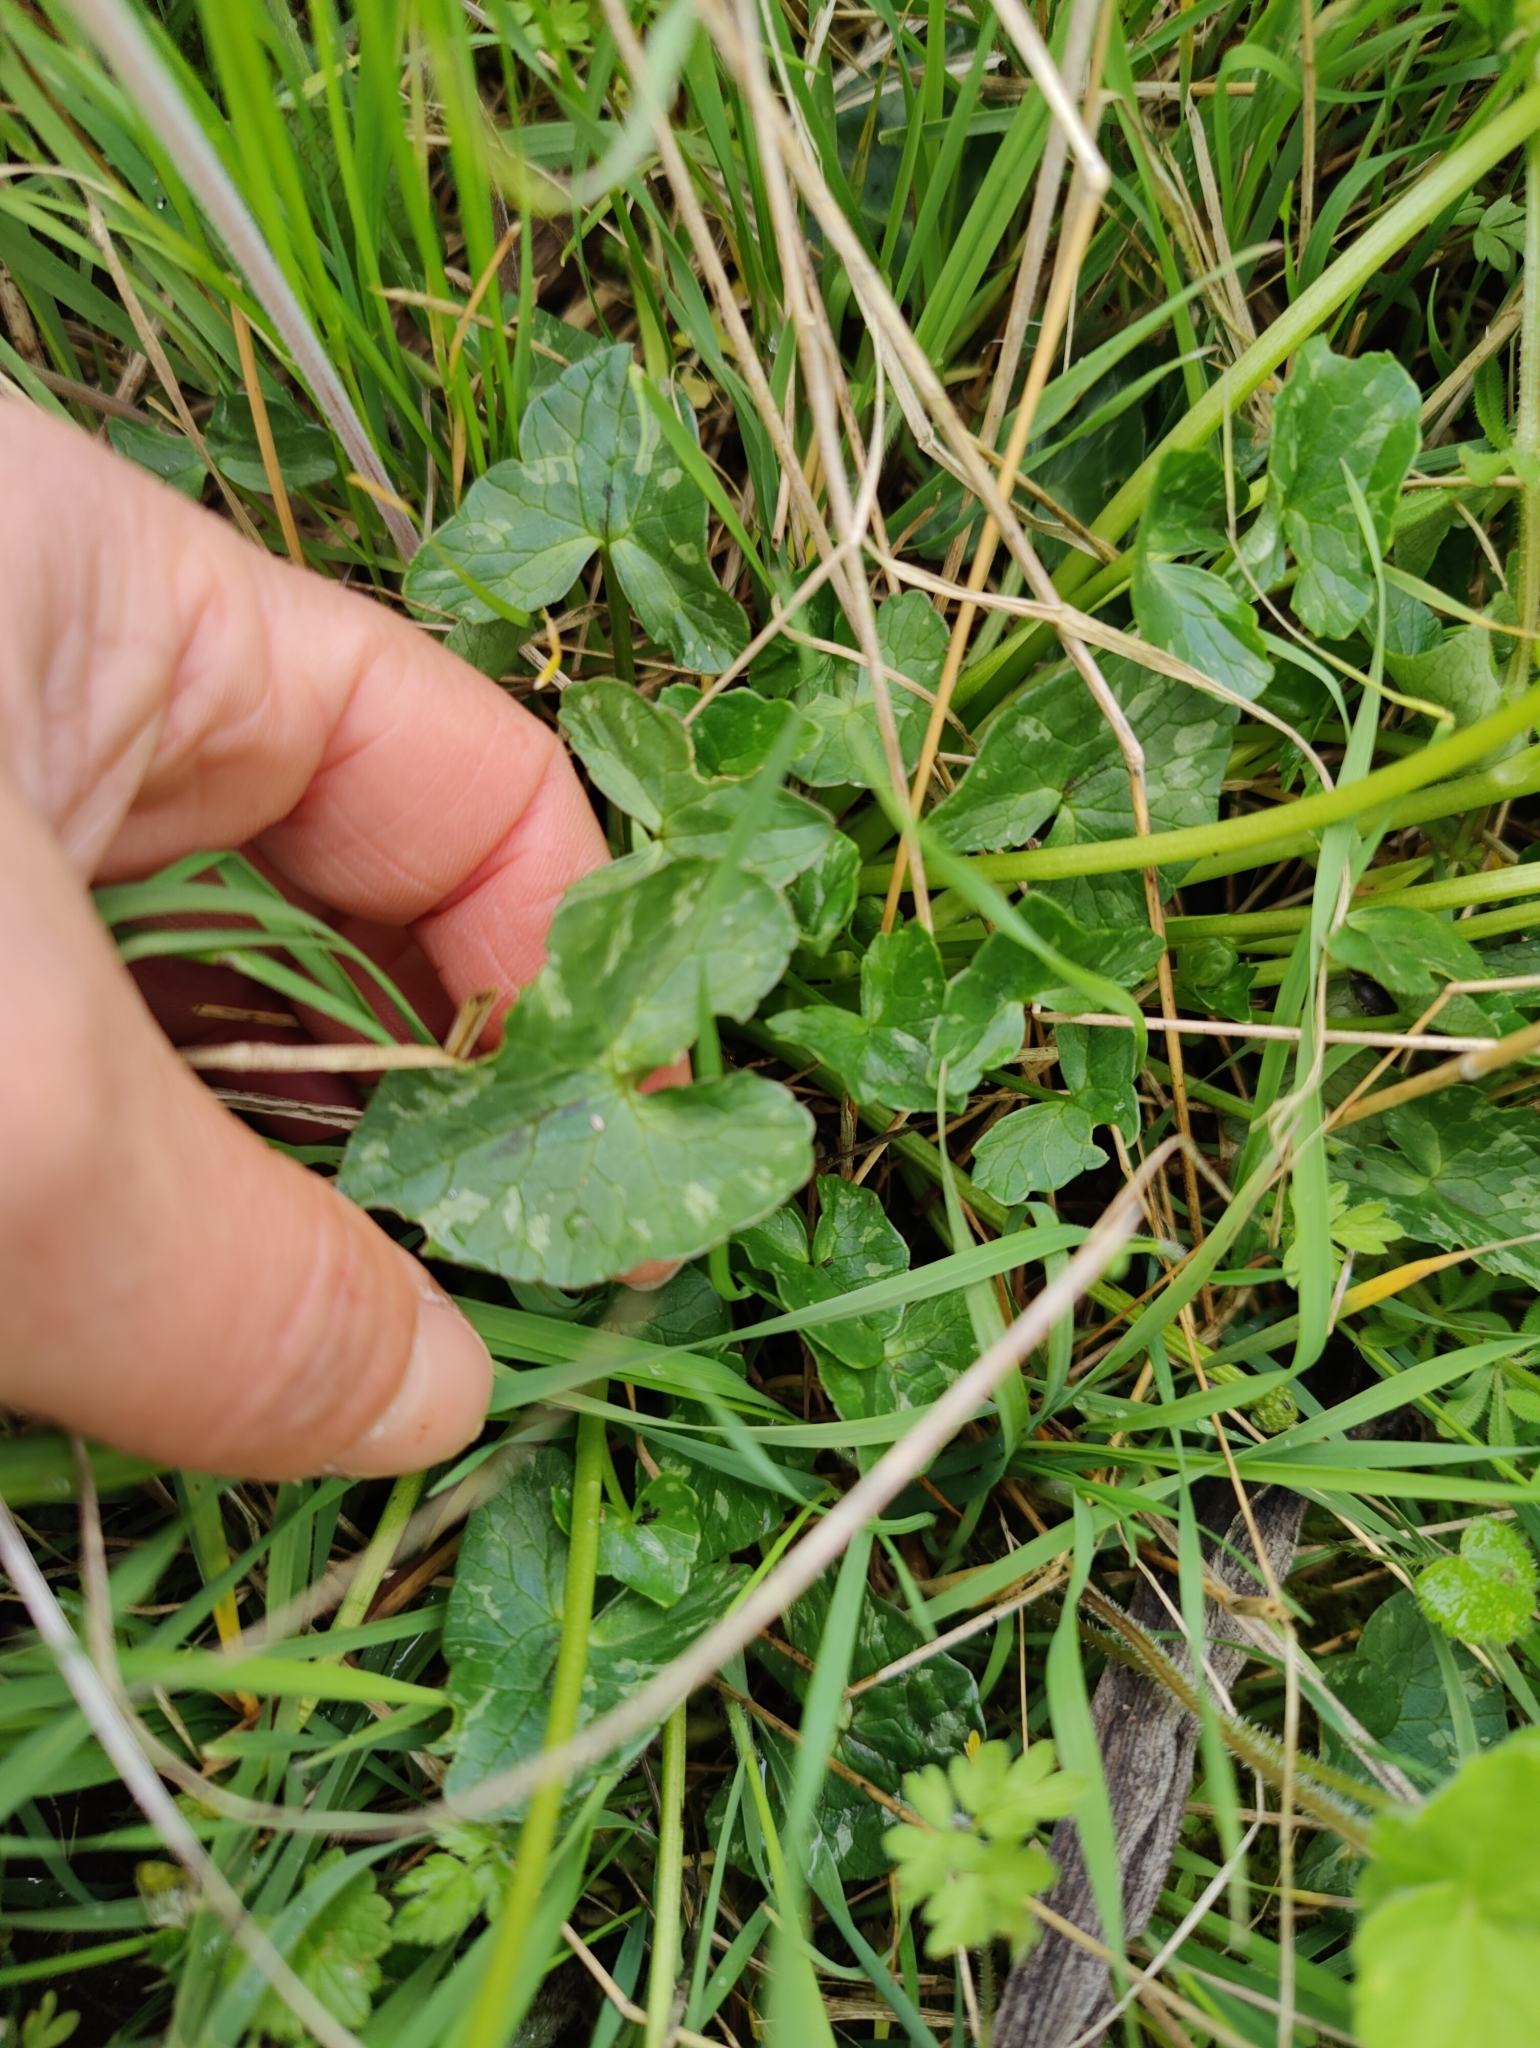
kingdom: Plantae
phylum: Tracheophyta
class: Magnoliopsida
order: Ranunculales
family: Ranunculaceae
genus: Ficaria
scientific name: Ficaria verna
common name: Lesser celandine
